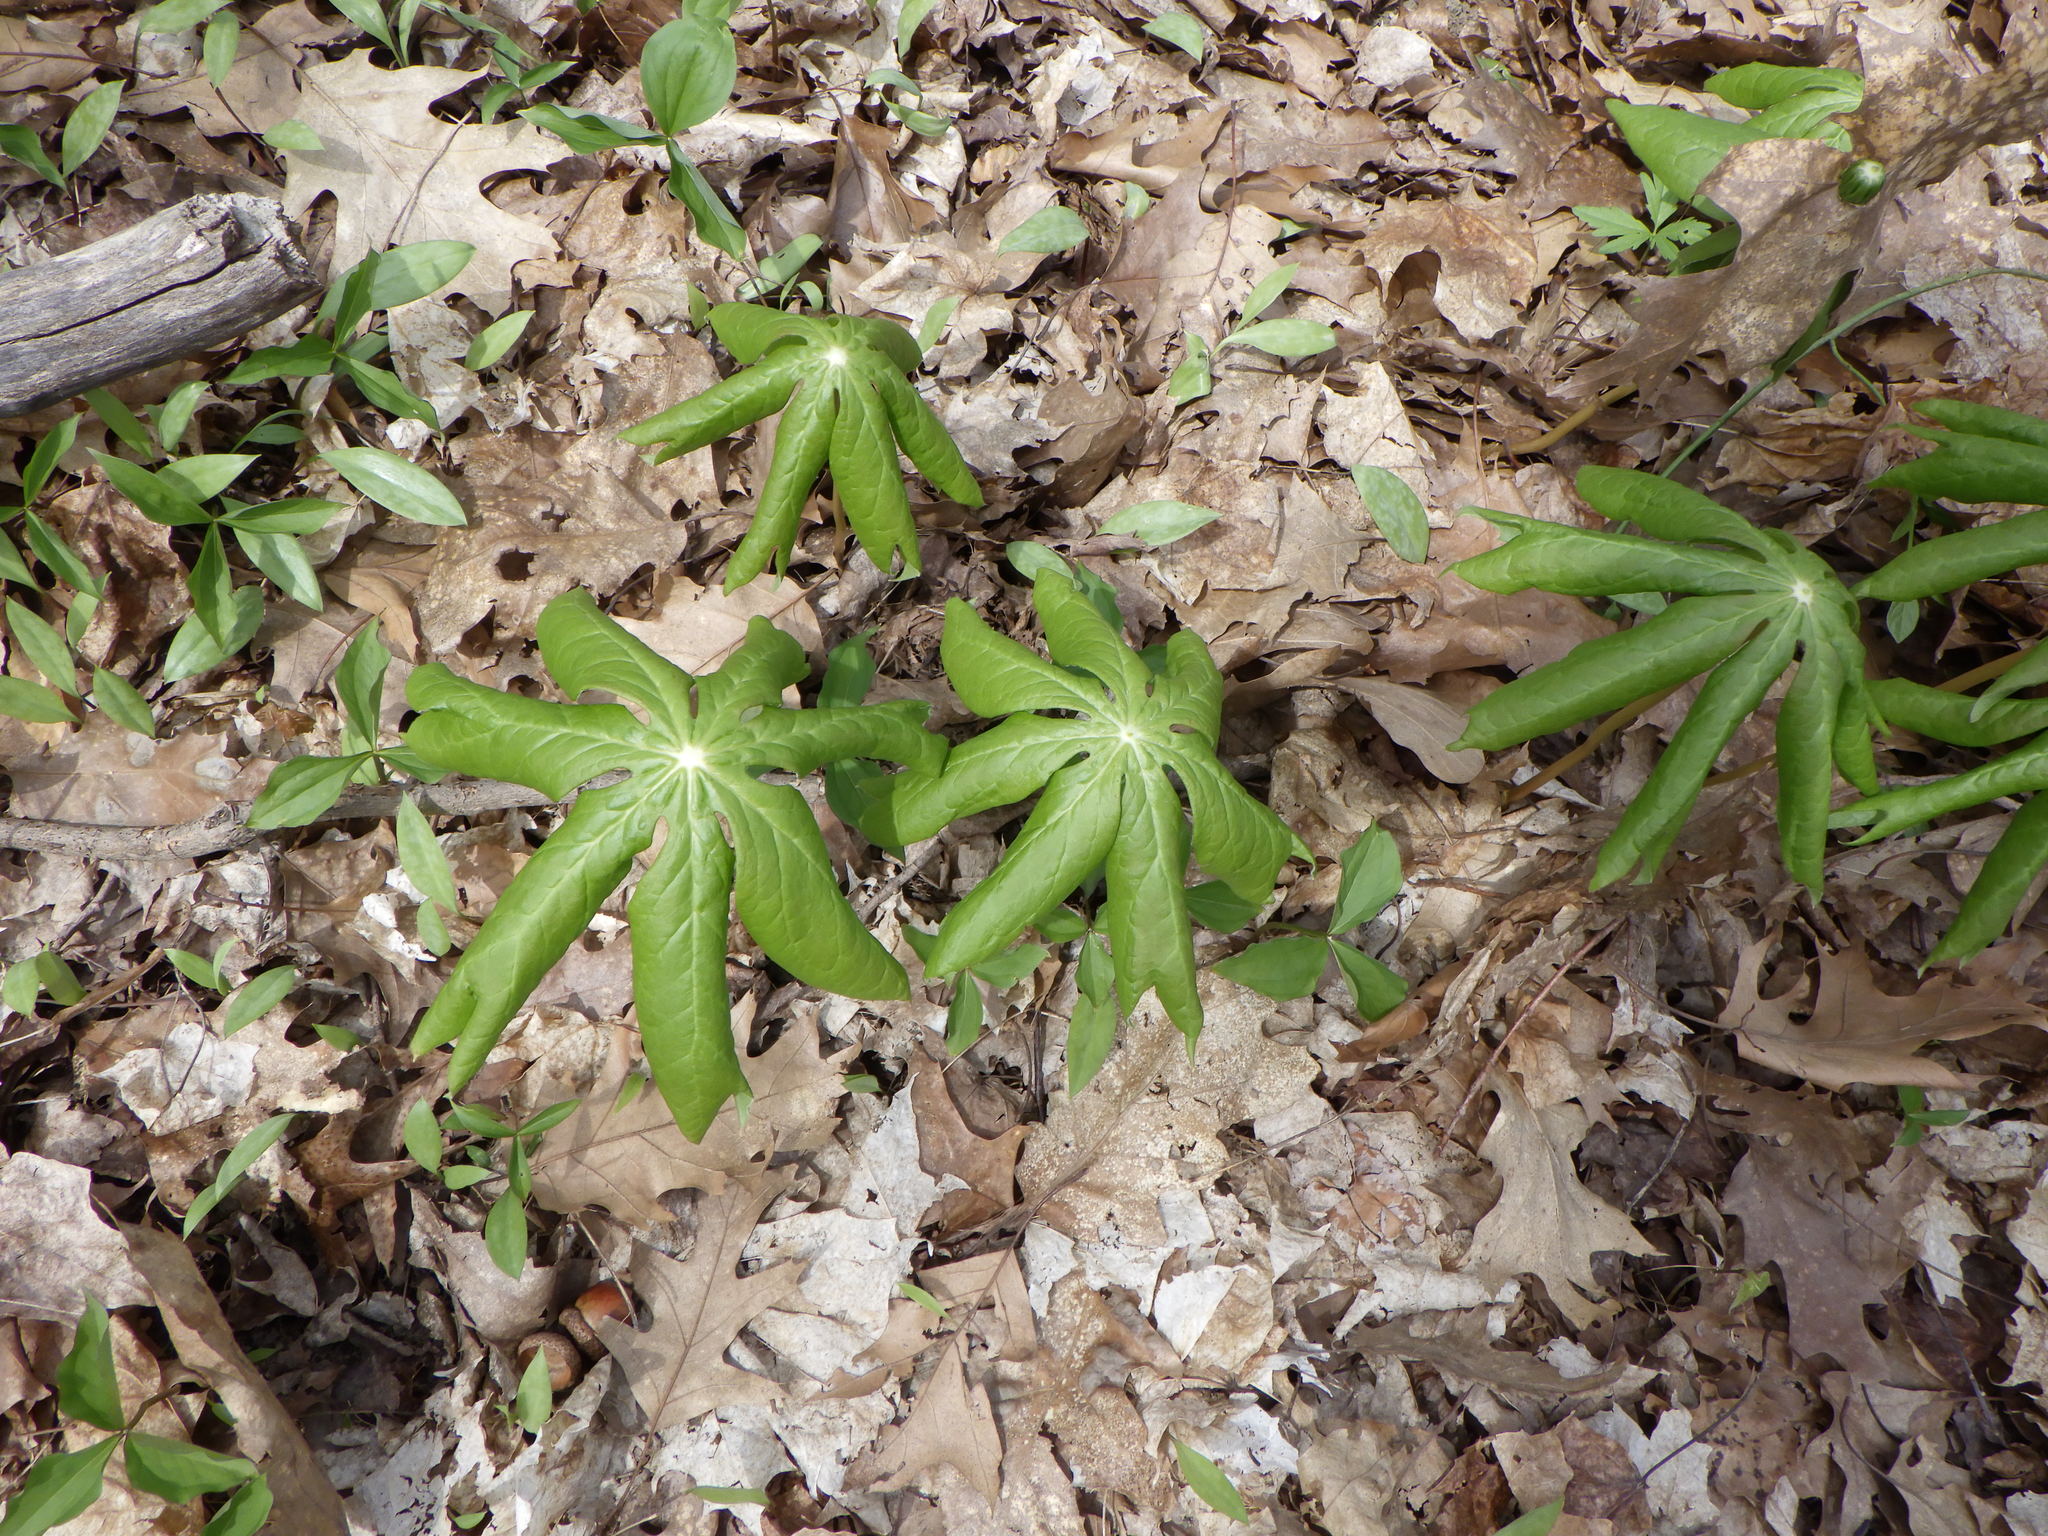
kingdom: Plantae
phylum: Tracheophyta
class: Magnoliopsida
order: Ranunculales
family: Berberidaceae
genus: Podophyllum
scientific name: Podophyllum peltatum
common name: Wild mandrake
